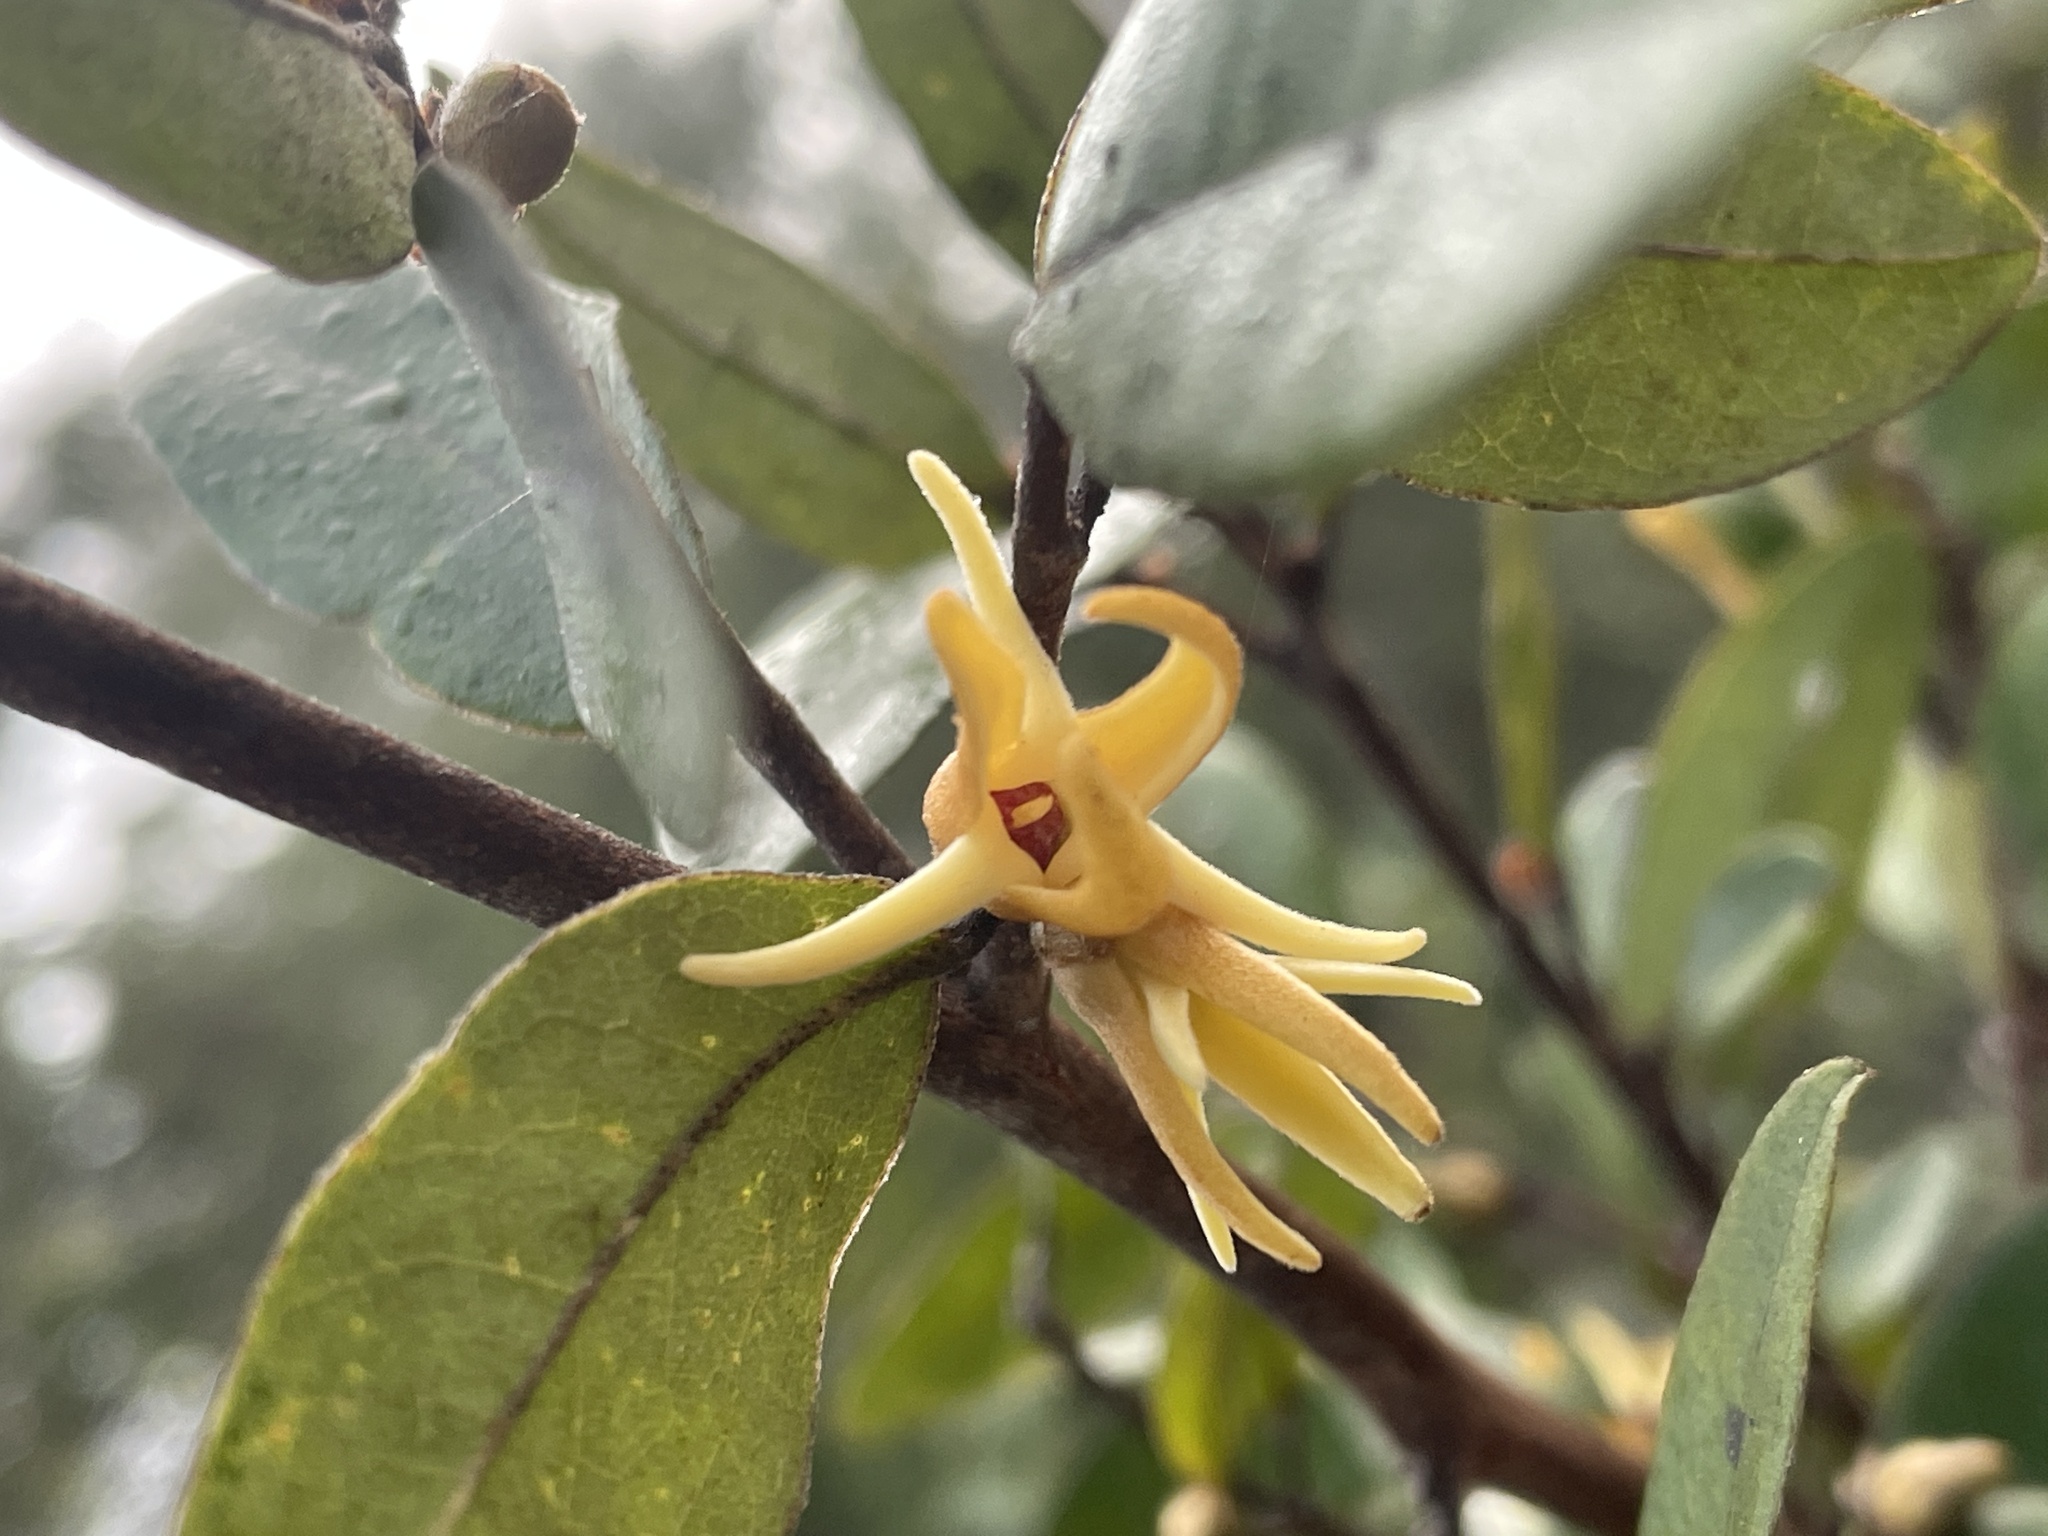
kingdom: Plantae
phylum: Tracheophyta
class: Magnoliopsida
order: Magnoliales
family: Annonaceae
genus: Xylopia
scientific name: Xylopia tomentosa
